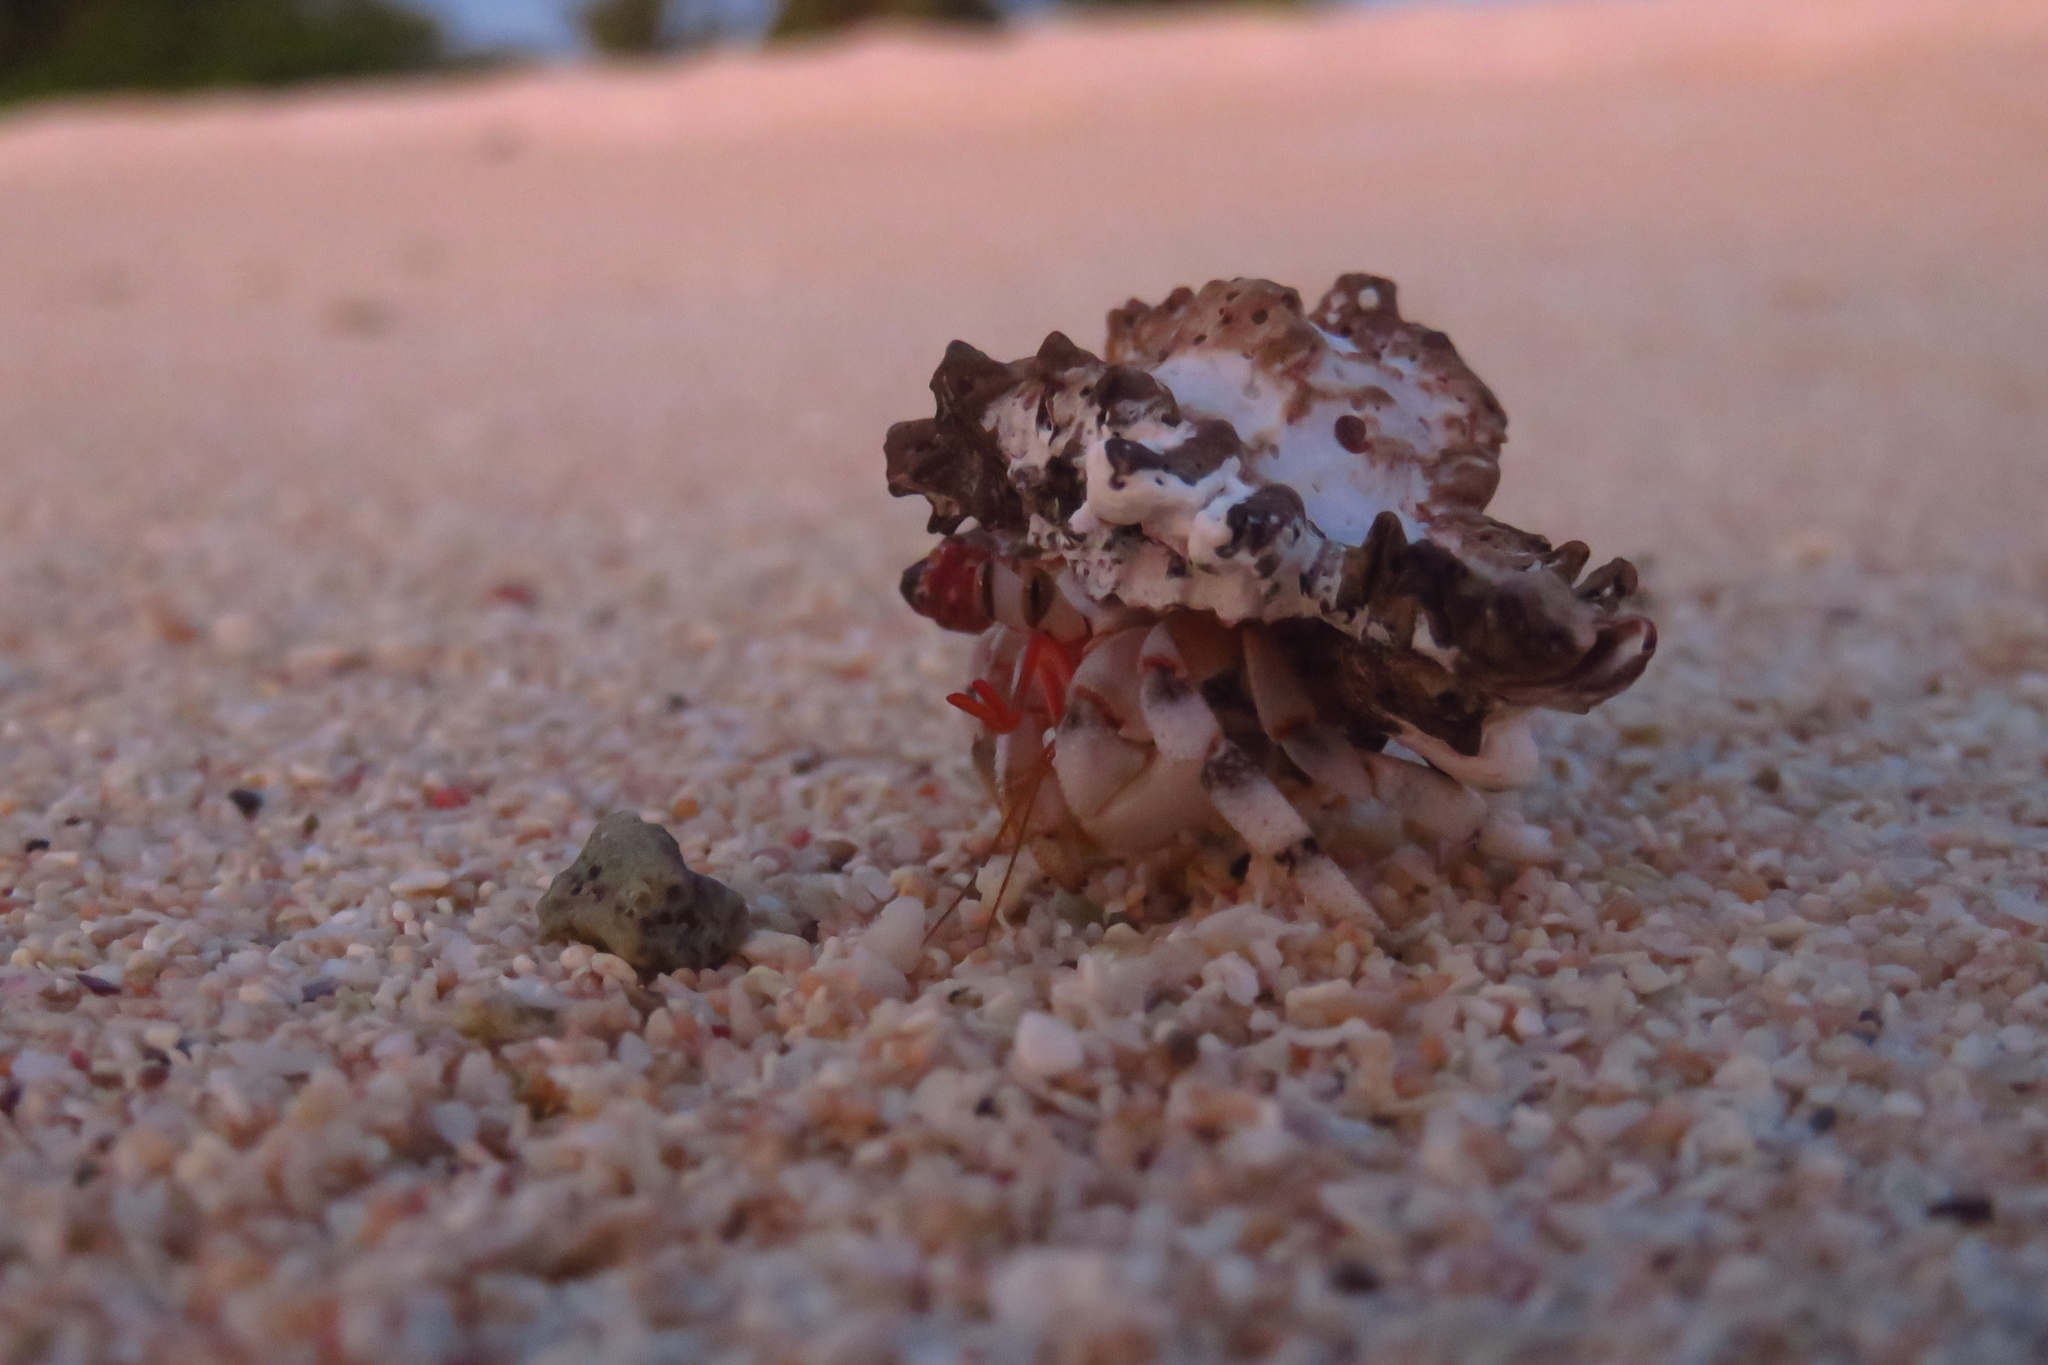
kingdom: Animalia
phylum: Arthropoda
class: Malacostraca
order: Decapoda
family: Coenobitidae
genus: Coenobita
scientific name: Coenobita carnescens
